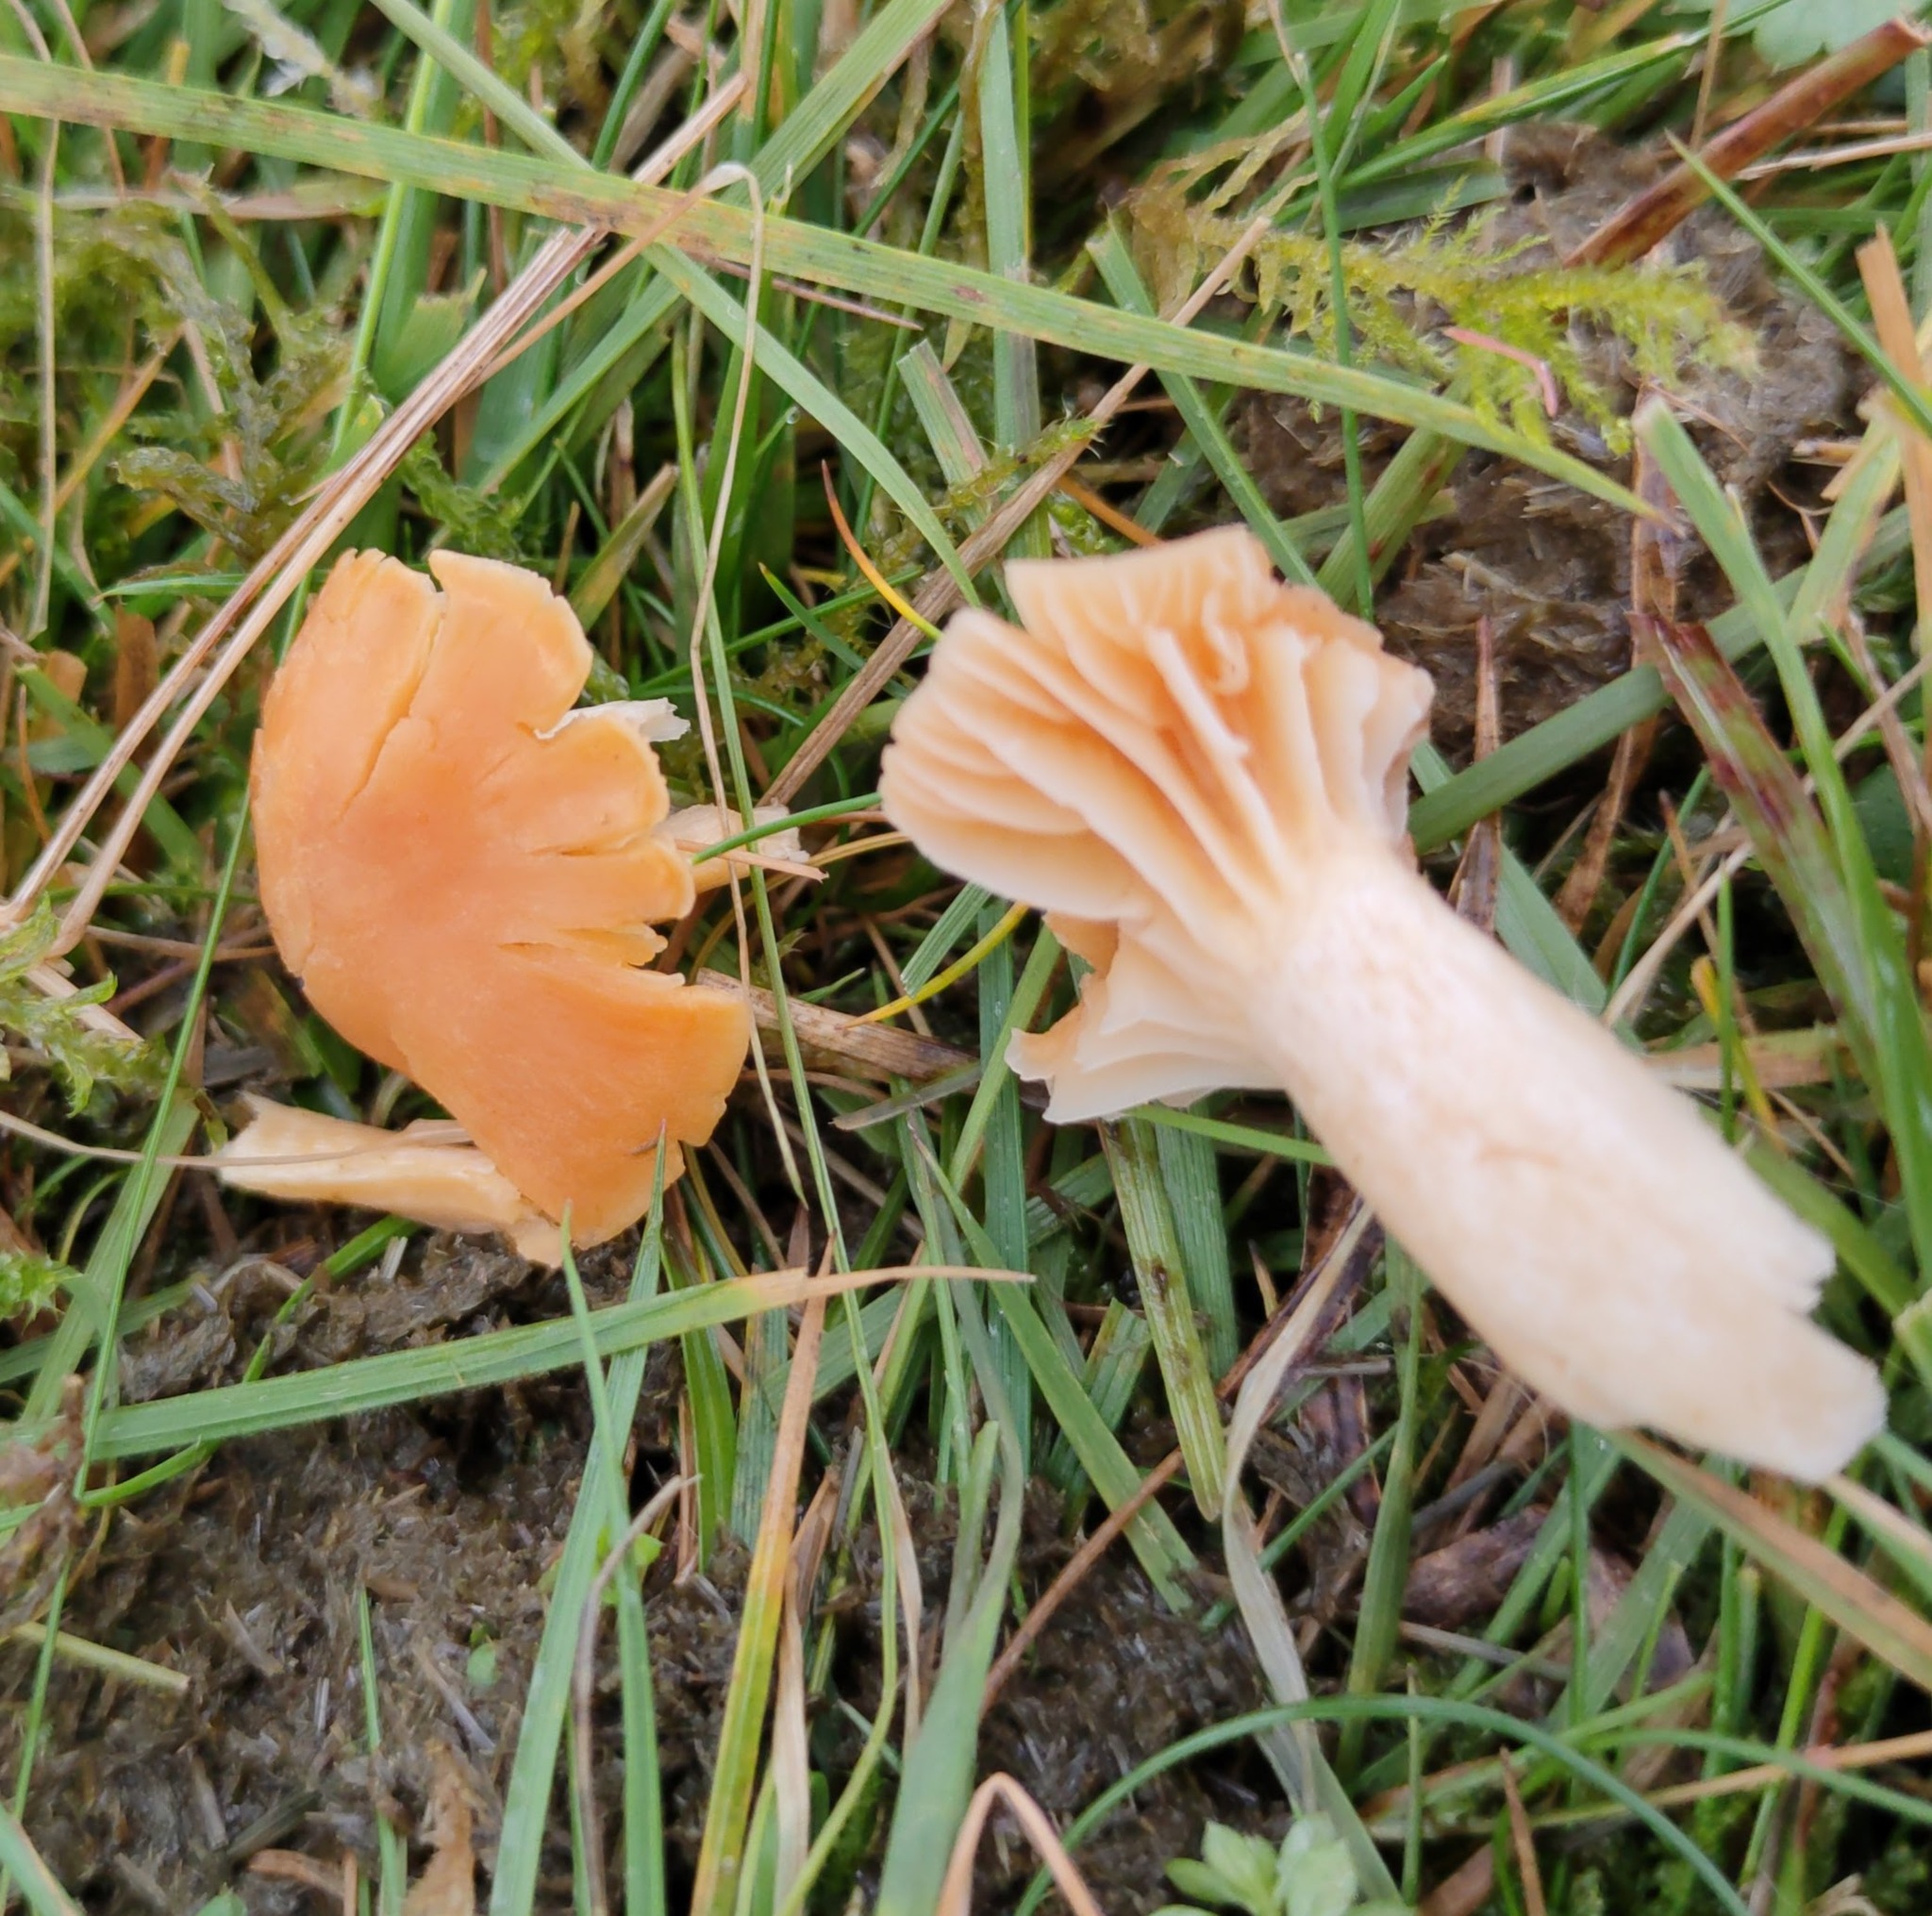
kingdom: Fungi
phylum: Basidiomycota
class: Agaricomycetes
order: Agaricales
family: Hygrophoraceae
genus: Cuphophyllus
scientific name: Cuphophyllus pratensis
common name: Meadow waxcap
